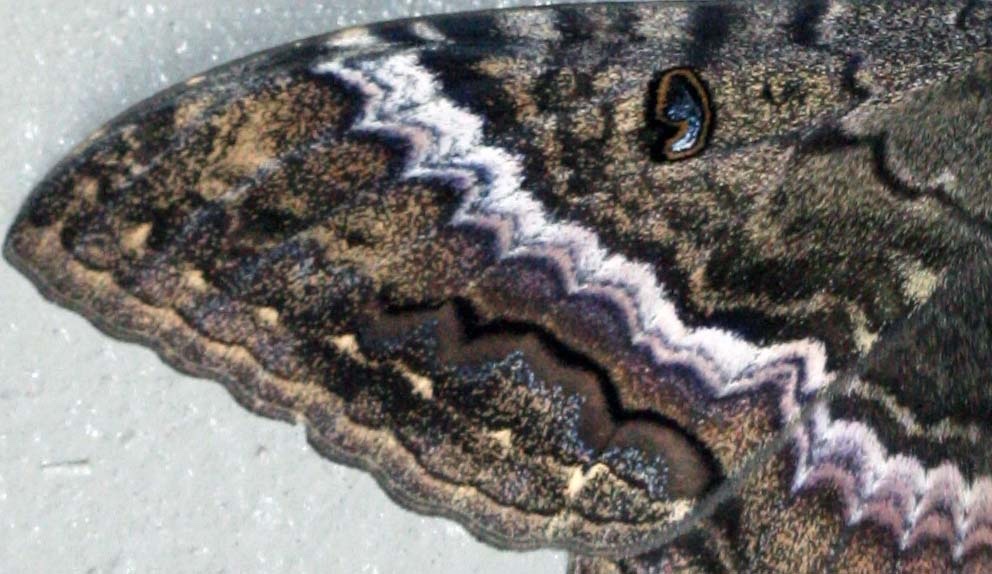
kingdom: Animalia
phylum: Arthropoda
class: Insecta
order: Lepidoptera
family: Erebidae
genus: Ascalapha
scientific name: Ascalapha odorata
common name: Black witch
